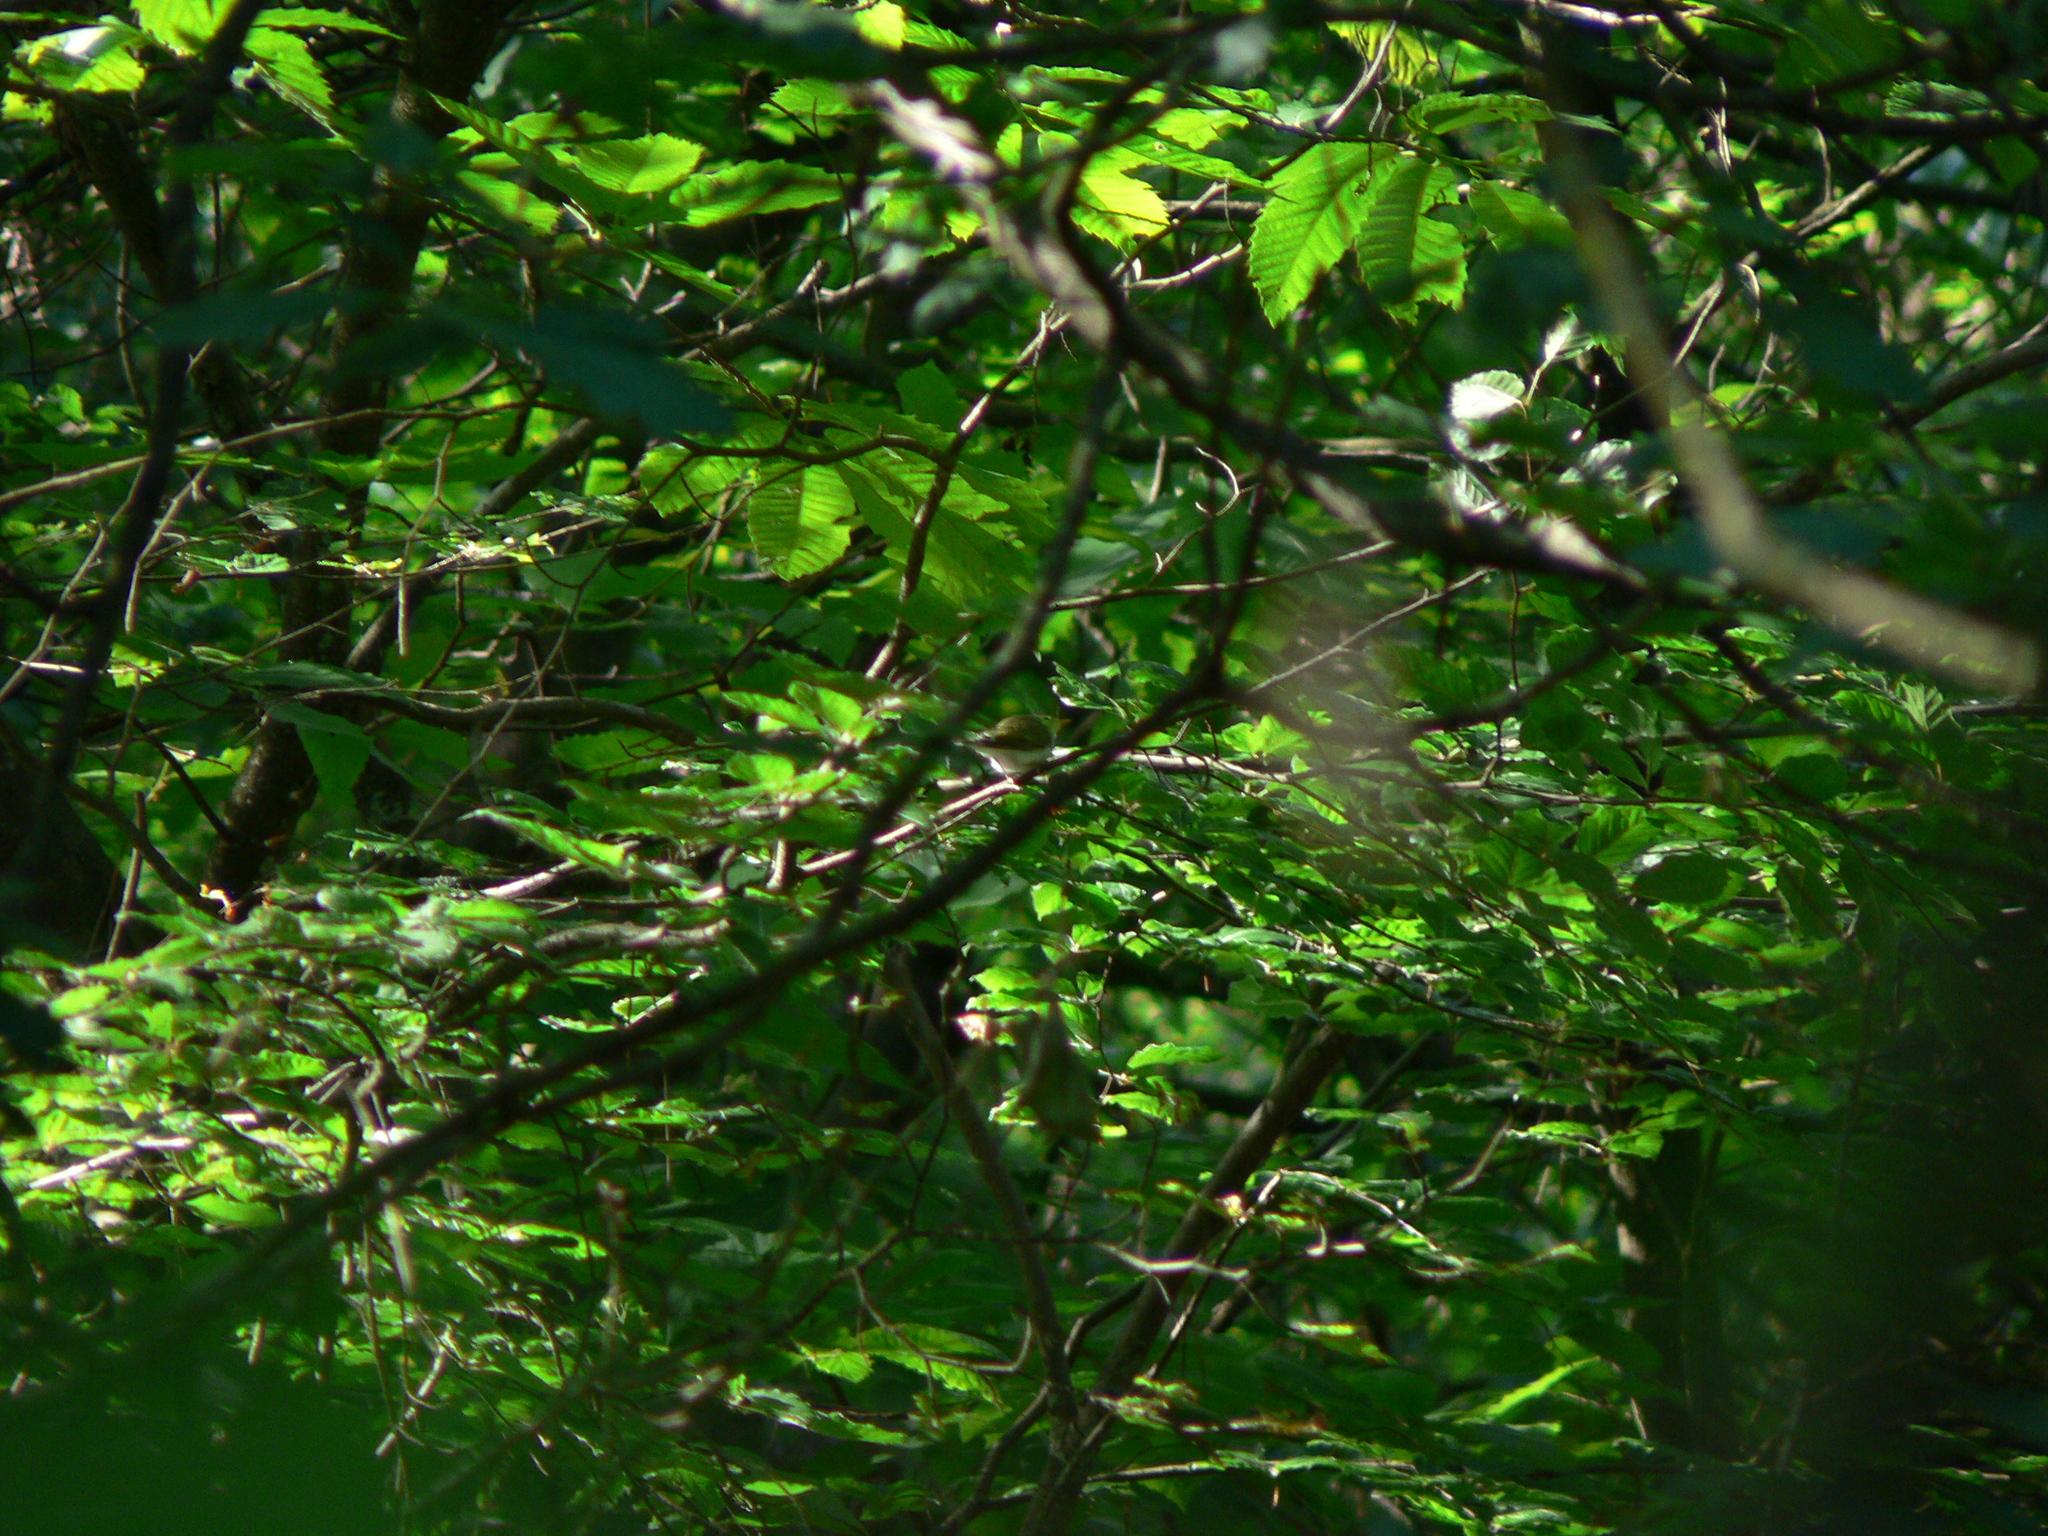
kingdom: Animalia
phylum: Chordata
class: Aves
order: Passeriformes
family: Phylloscopidae
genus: Phylloscopus
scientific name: Phylloscopus sibillatrix
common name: Wood warbler
